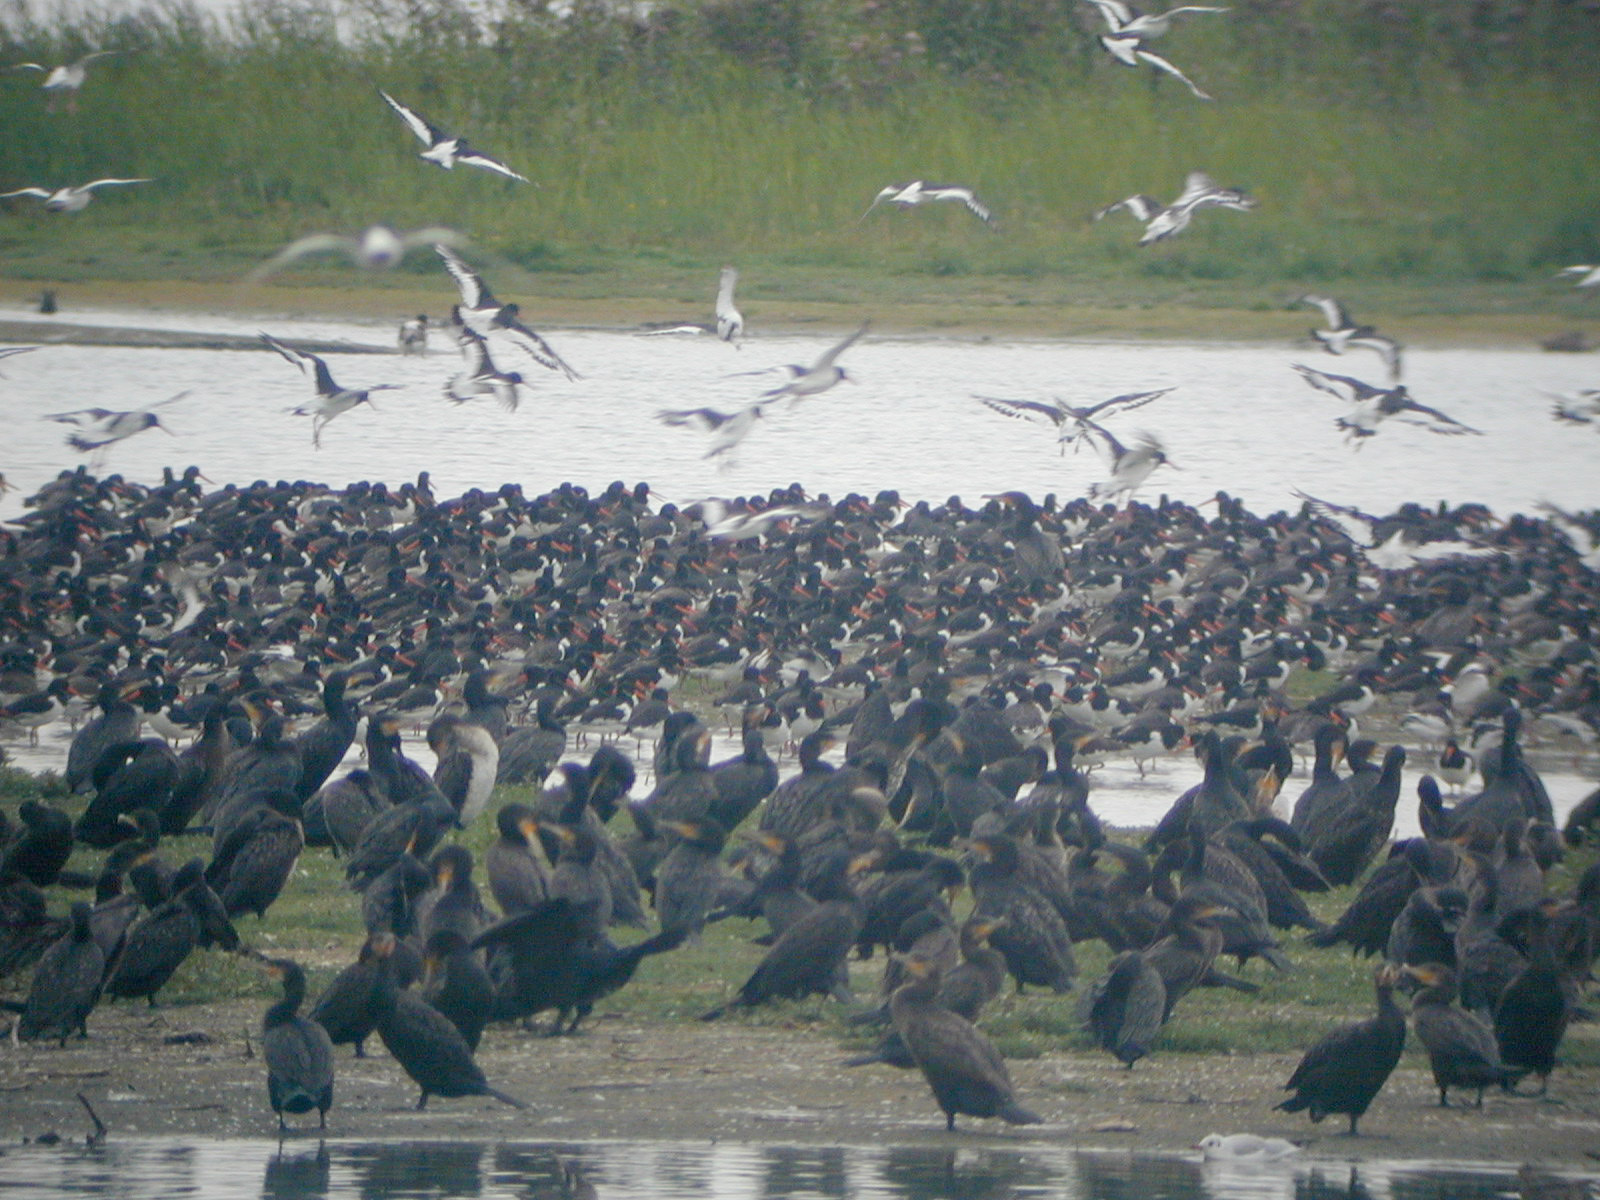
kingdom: Animalia
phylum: Chordata
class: Aves
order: Suliformes
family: Phalacrocoracidae
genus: Phalacrocorax
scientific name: Phalacrocorax carbo
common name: Great cormorant
